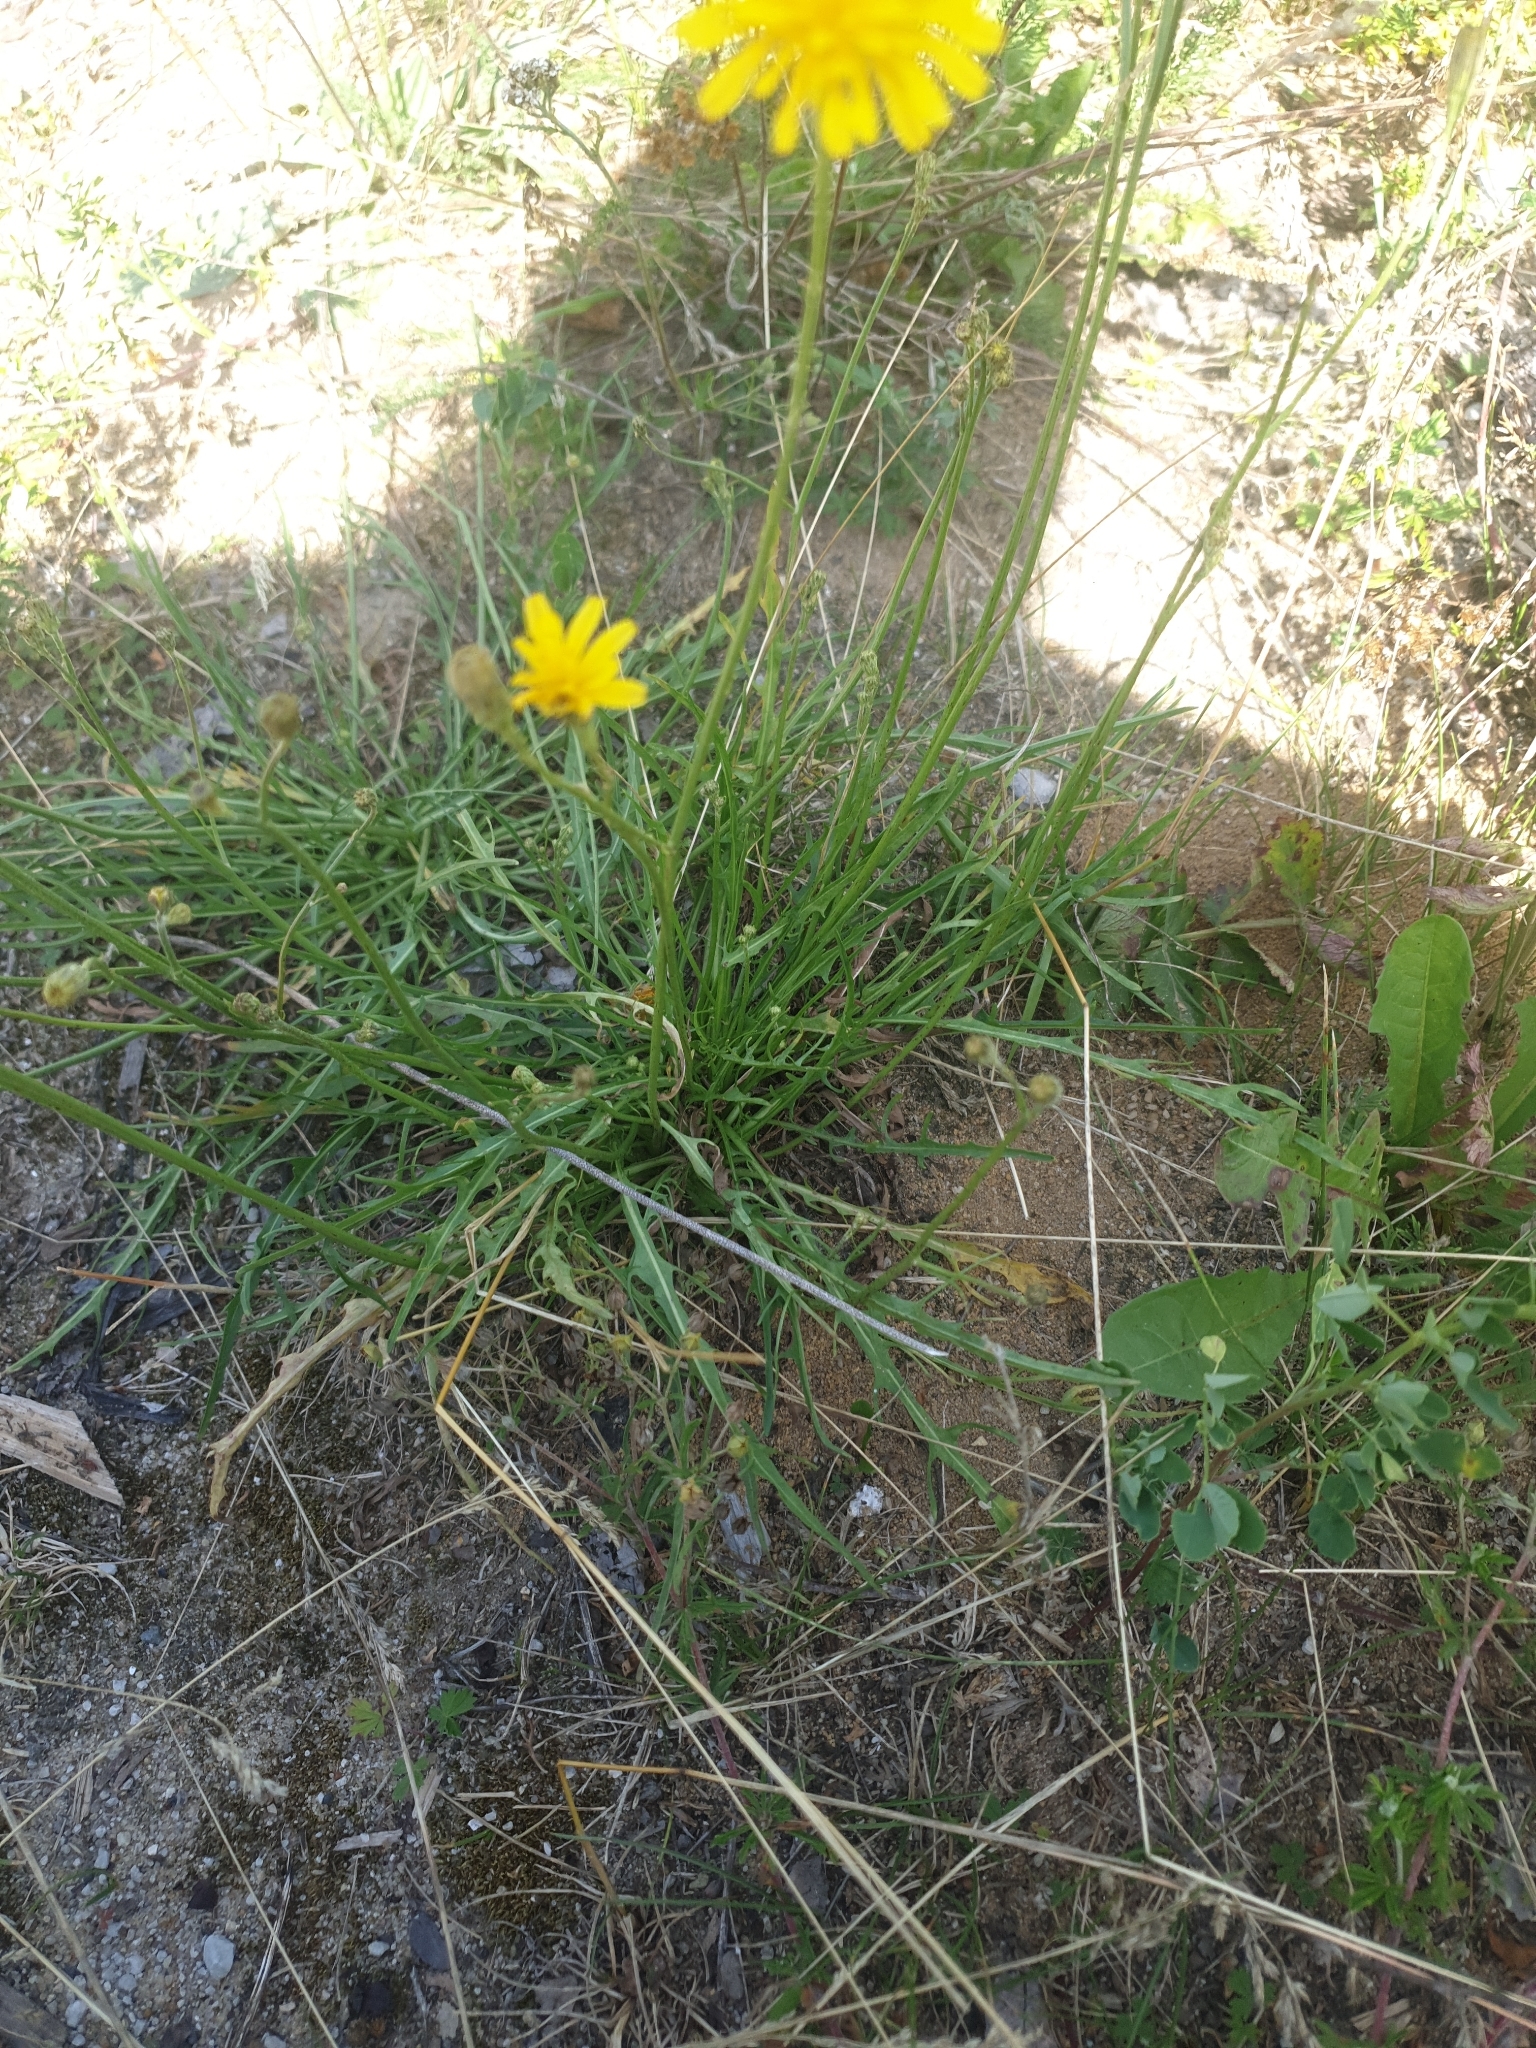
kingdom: Plantae
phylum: Tracheophyta
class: Magnoliopsida
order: Asterales
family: Asteraceae
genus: Scorzoneroides
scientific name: Scorzoneroides autumnalis
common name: Autumn hawkbit
